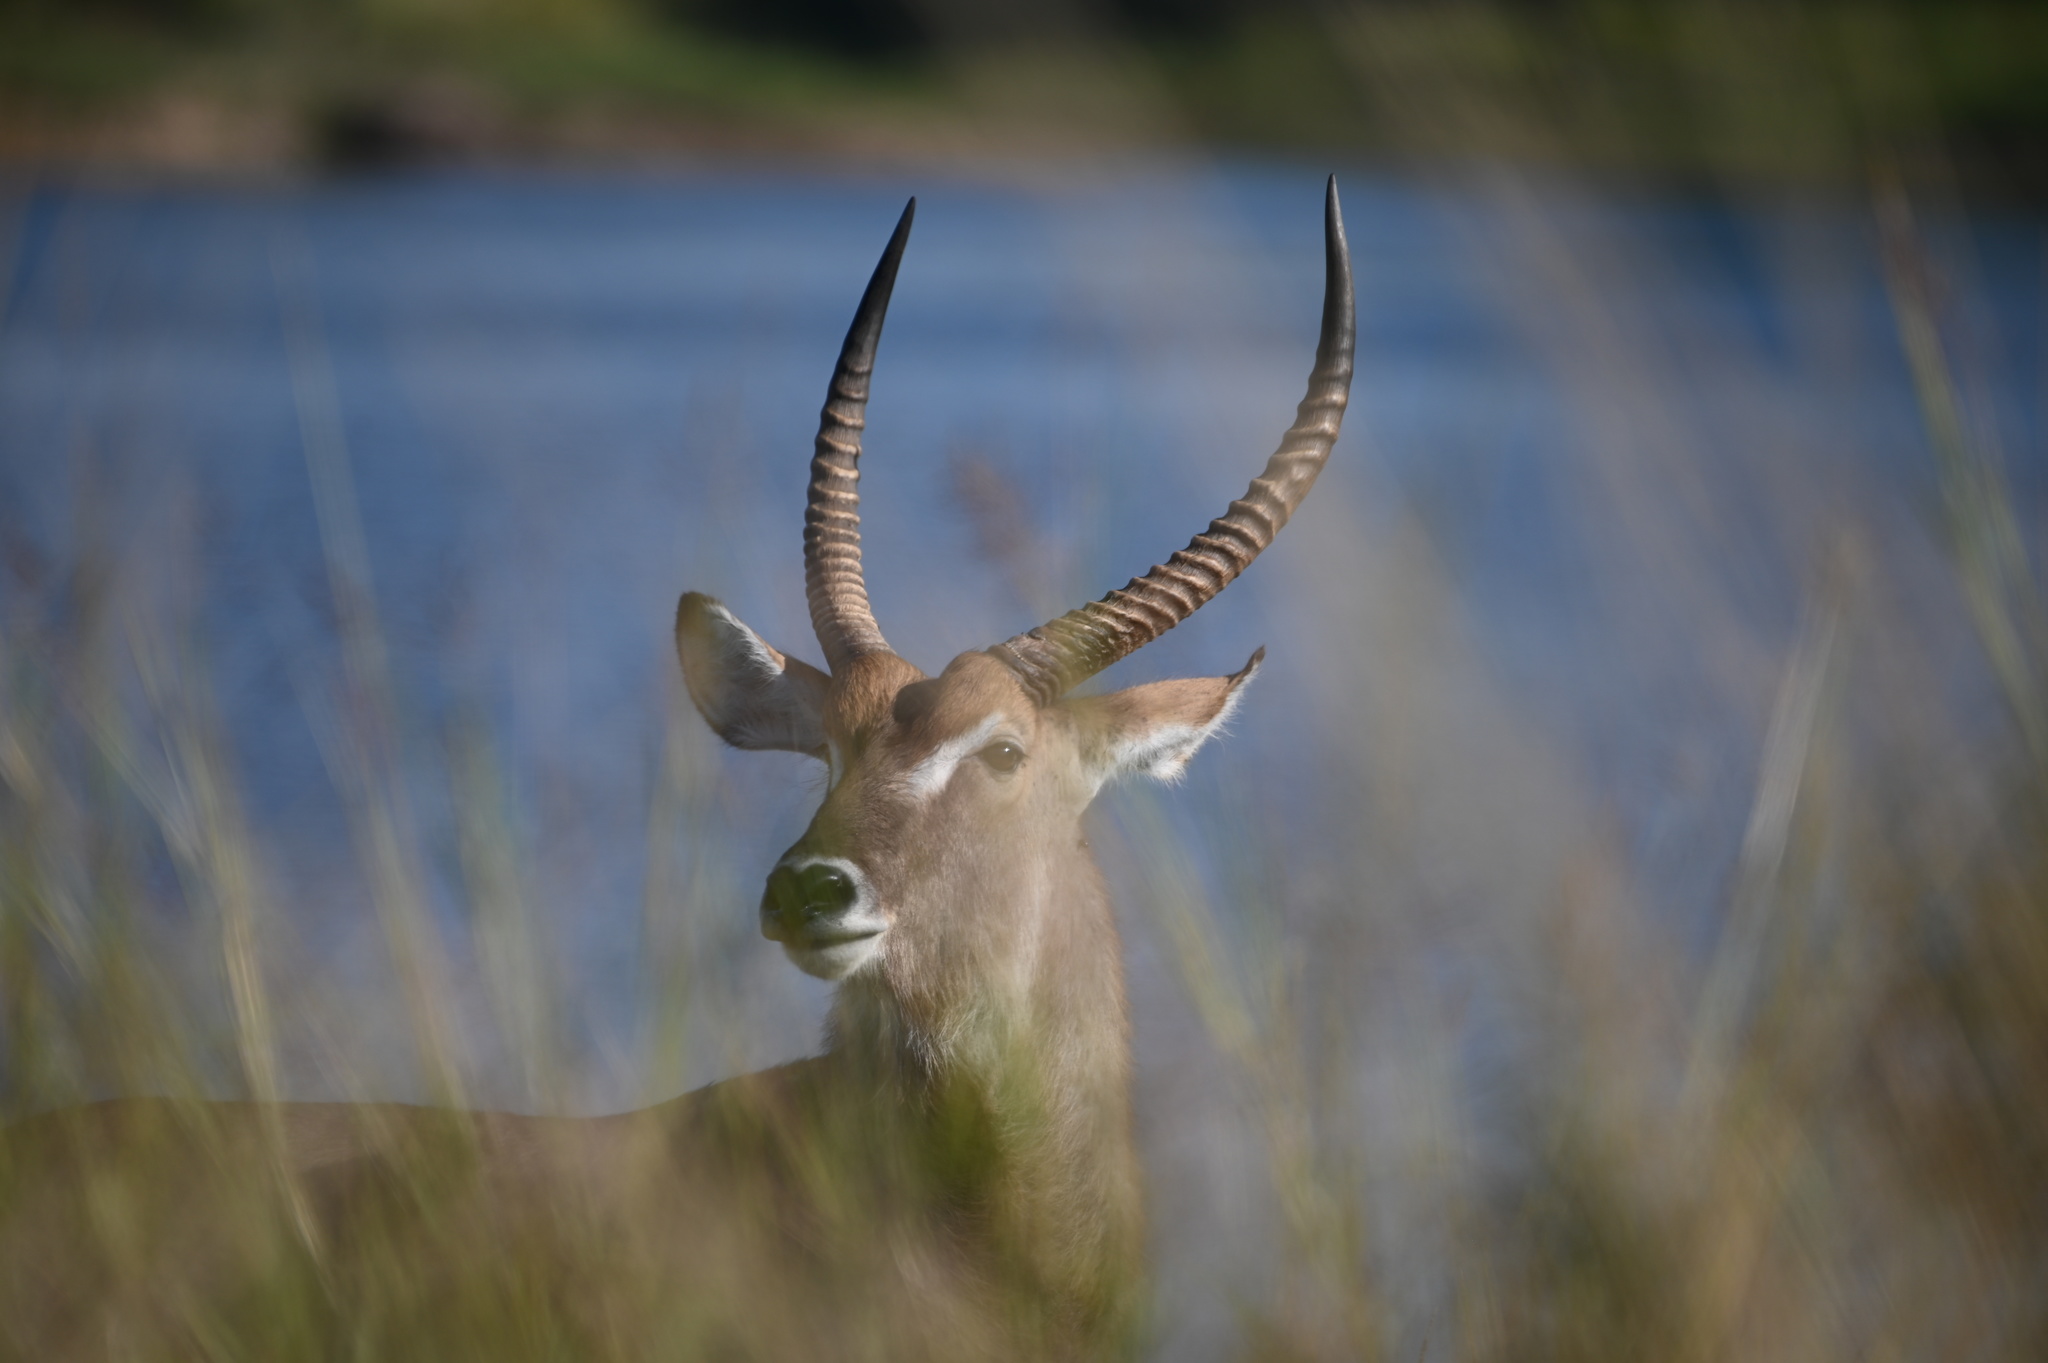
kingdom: Animalia
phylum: Chordata
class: Mammalia
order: Artiodactyla
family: Bovidae
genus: Kobus
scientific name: Kobus ellipsiprymnus
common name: Waterbuck
